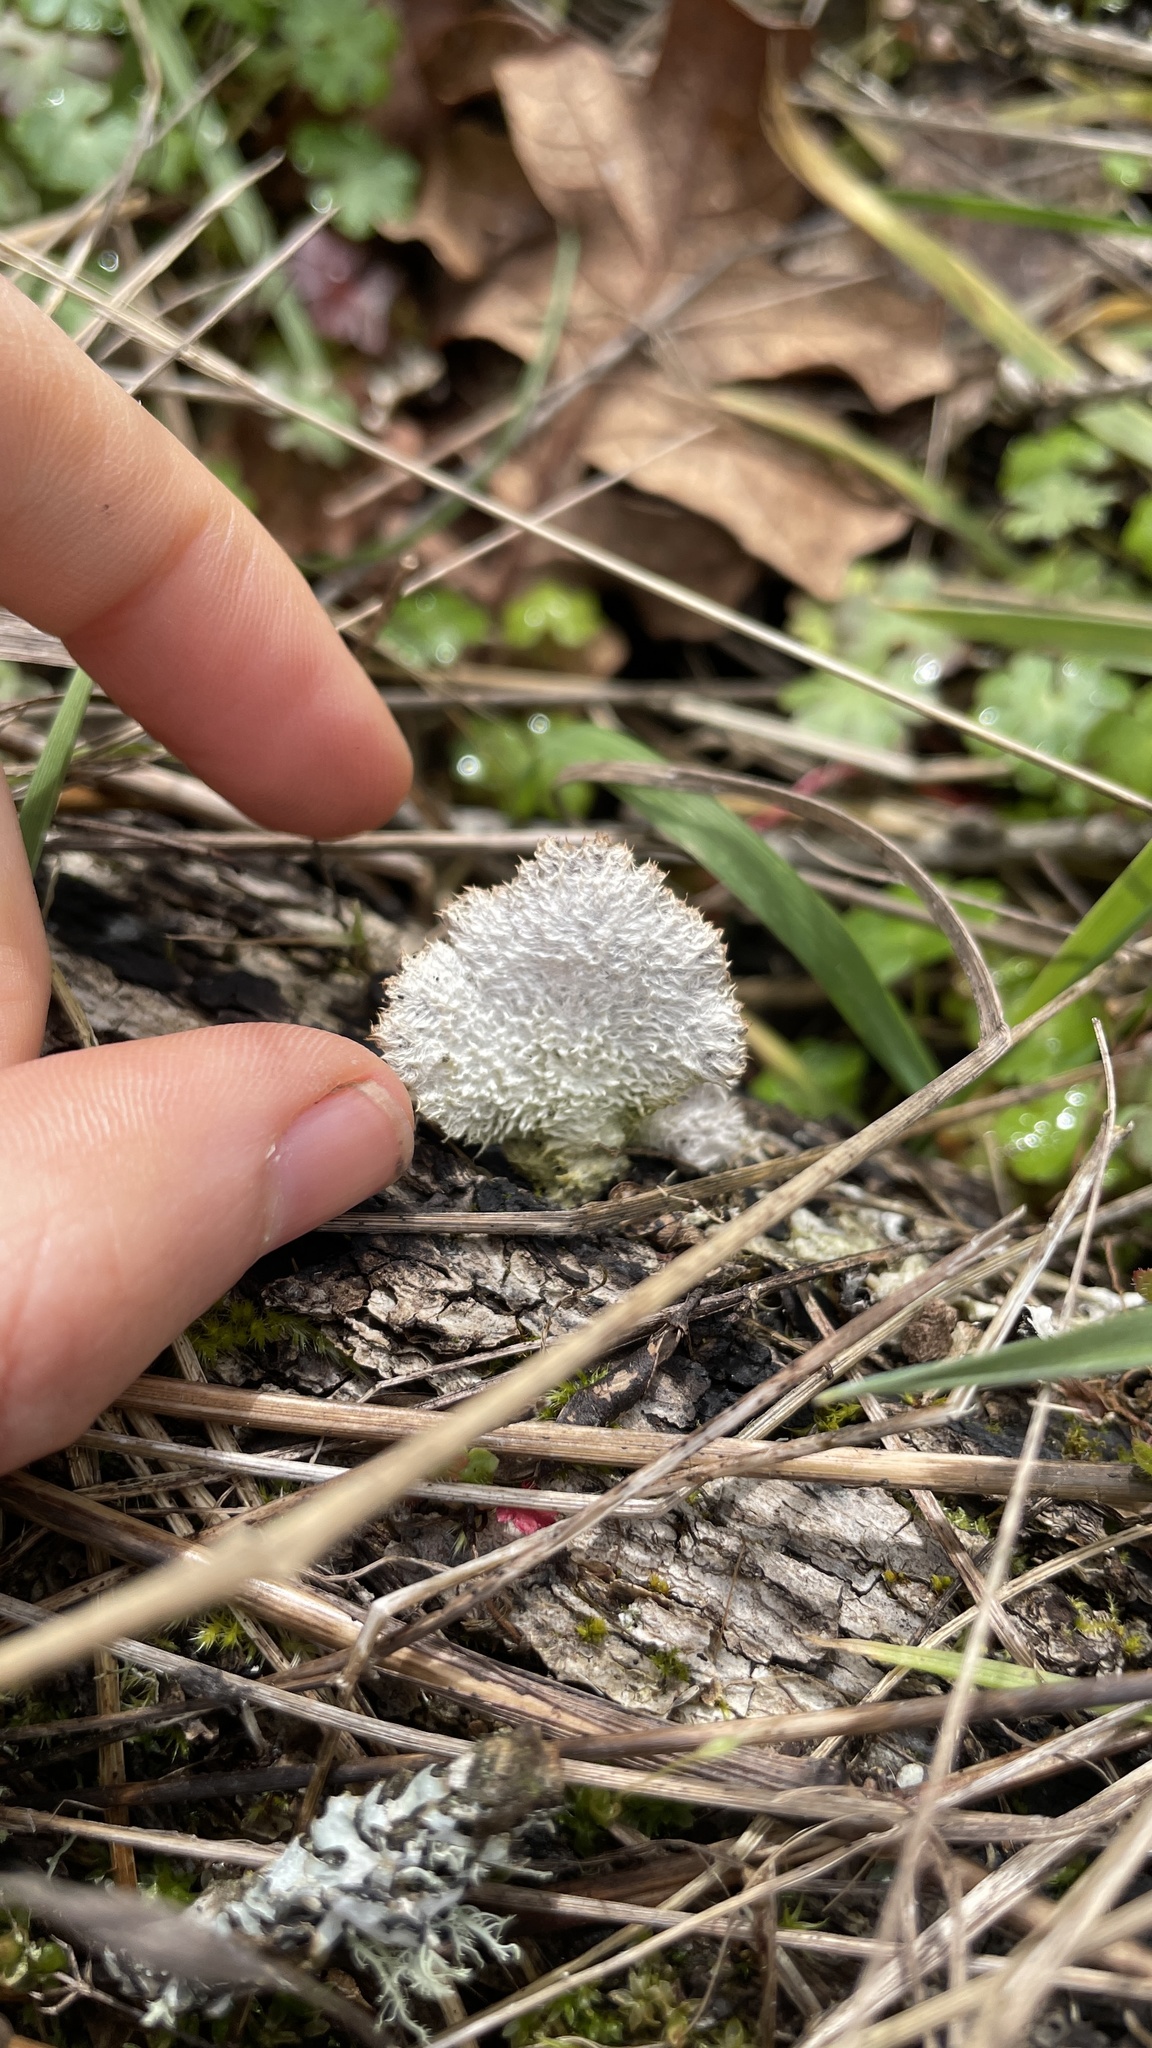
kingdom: Fungi
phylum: Basidiomycota
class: Agaricomycetes
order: Agaricales
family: Schizophyllaceae
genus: Schizophyllum
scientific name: Schizophyllum commune
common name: Common porecrust
